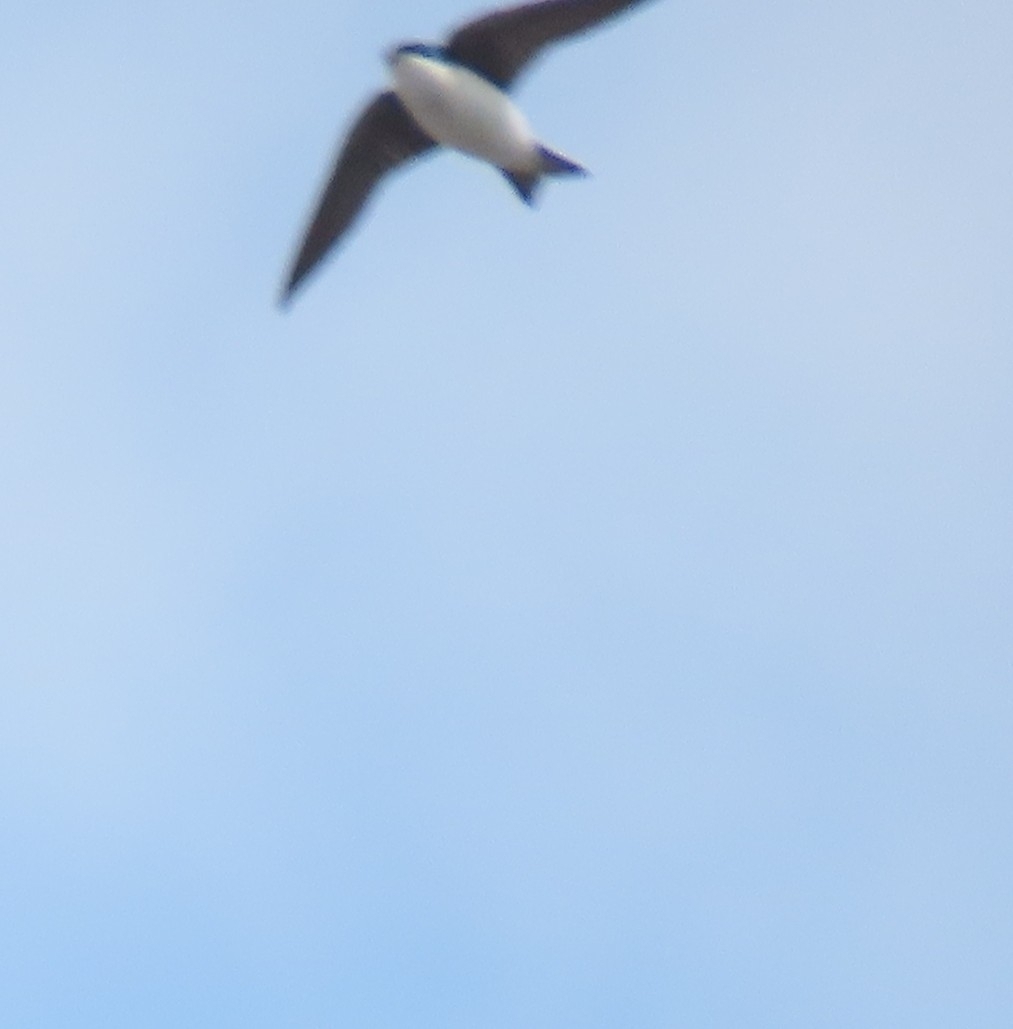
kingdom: Animalia
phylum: Chordata
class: Aves
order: Passeriformes
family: Hirundinidae
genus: Tachycineta
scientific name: Tachycineta bicolor
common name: Tree swallow
